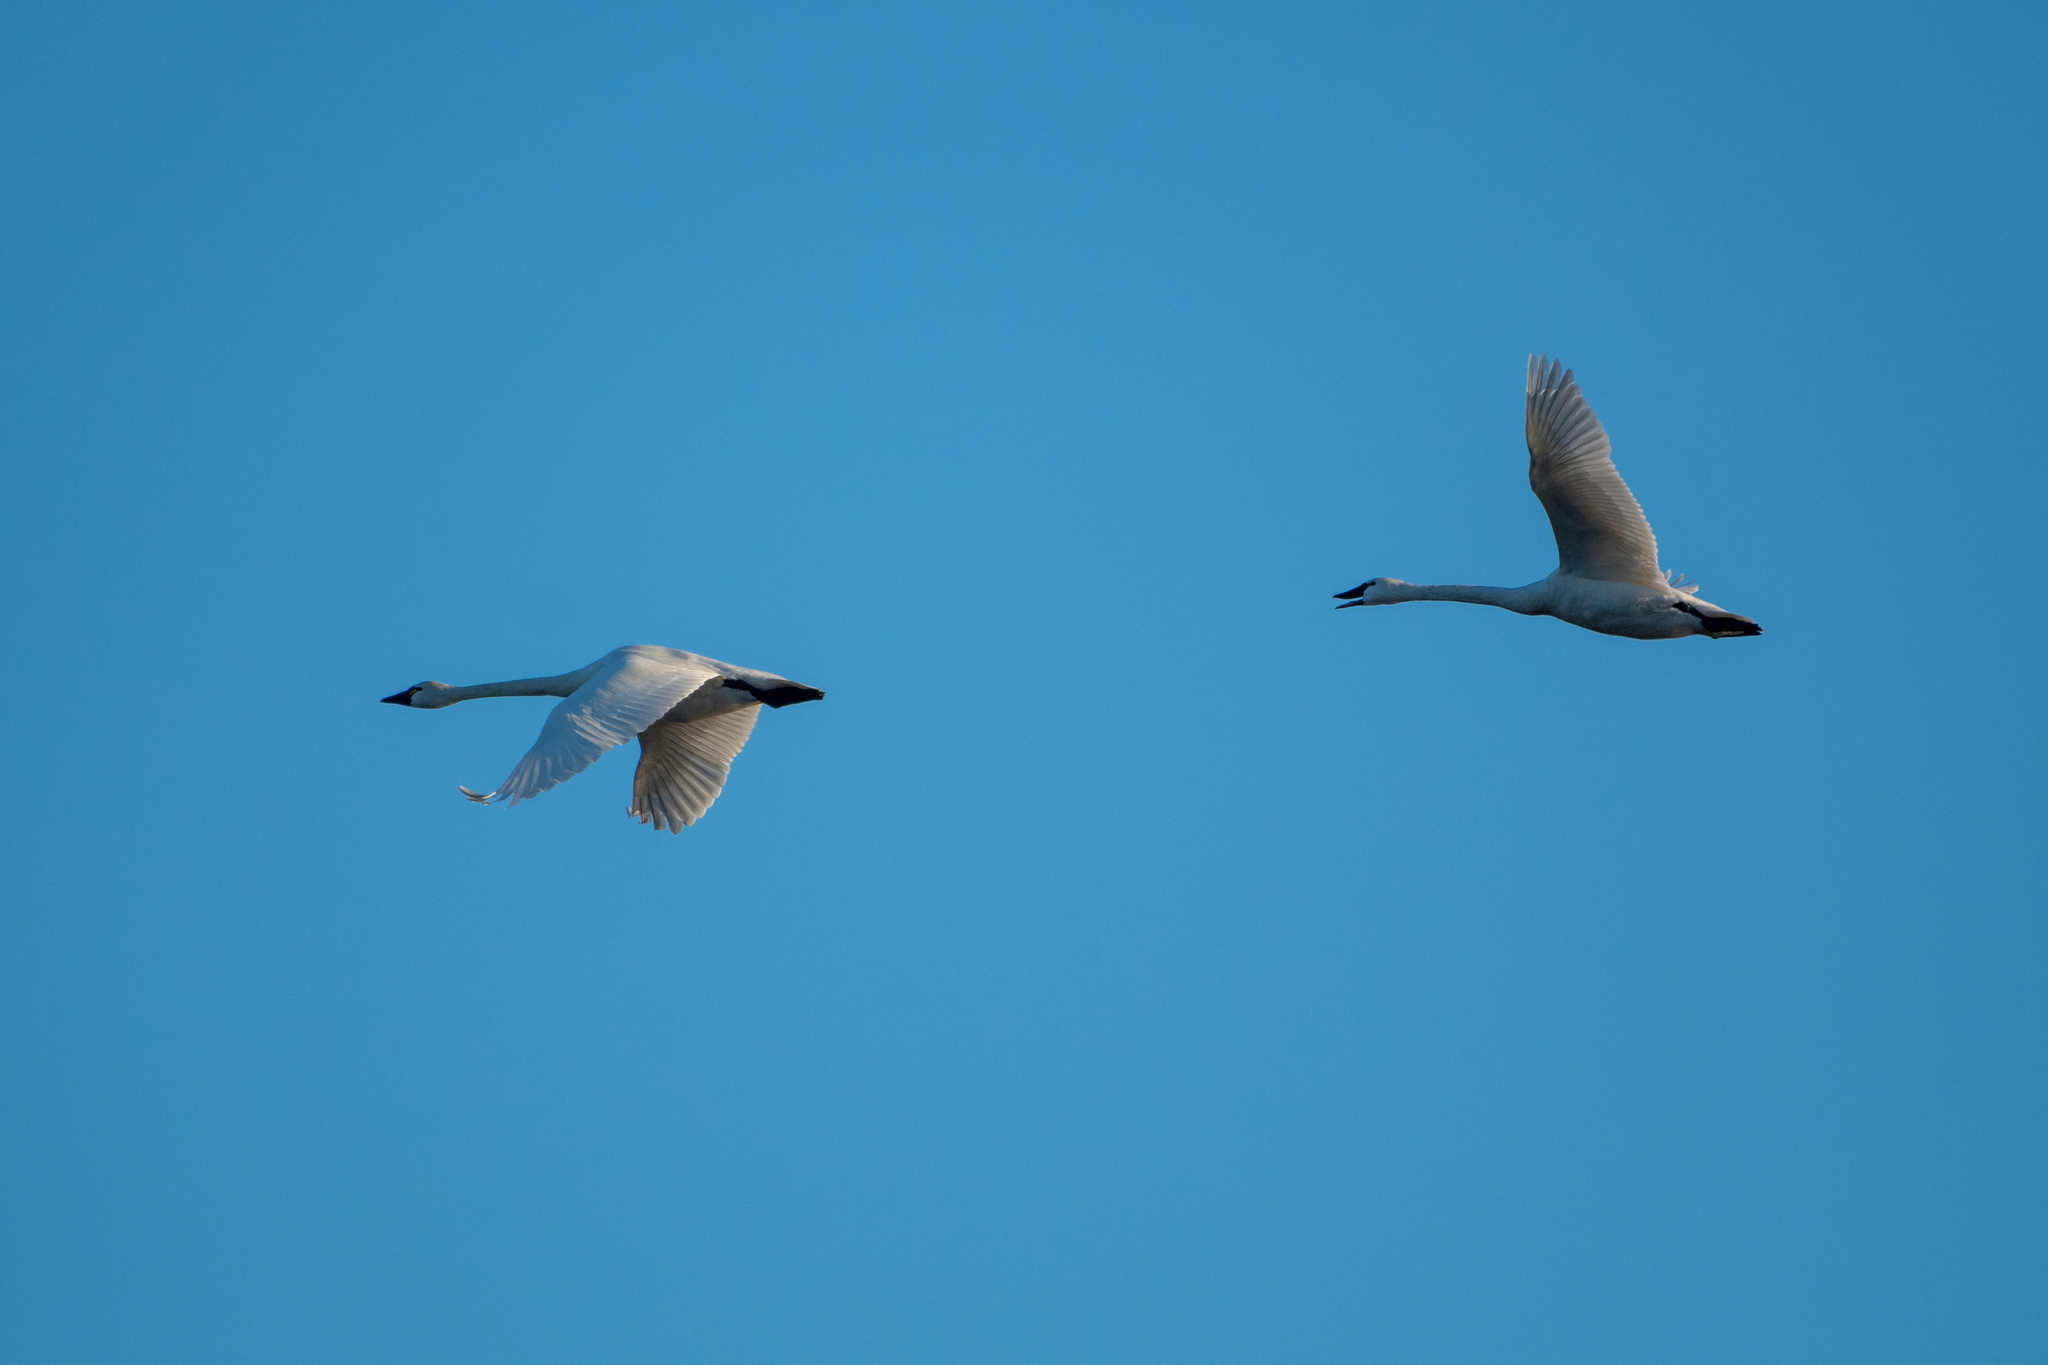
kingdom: Animalia
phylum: Chordata
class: Aves
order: Anseriformes
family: Anatidae
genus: Cygnus
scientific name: Cygnus columbianus
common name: Tundra swan
